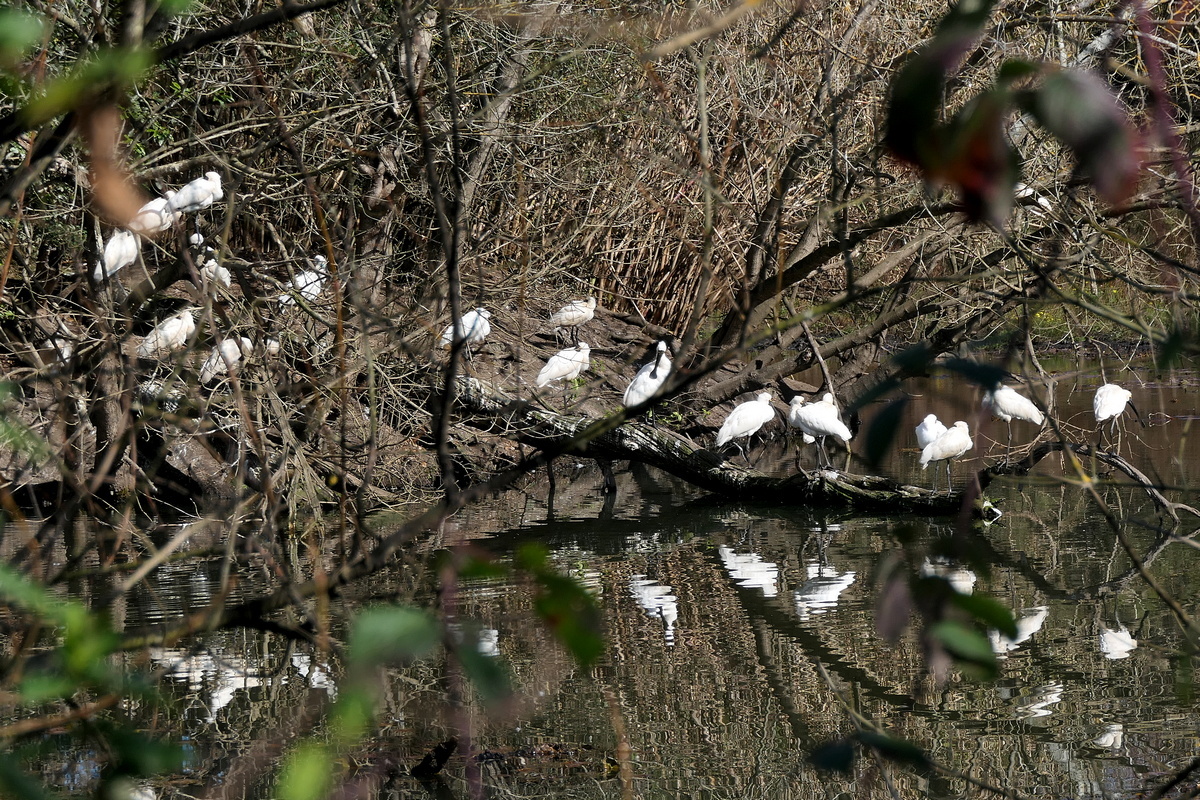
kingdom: Animalia
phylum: Chordata
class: Aves
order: Pelecaniformes
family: Threskiornithidae
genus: Platalea
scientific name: Platalea regia
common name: Royal spoonbill
